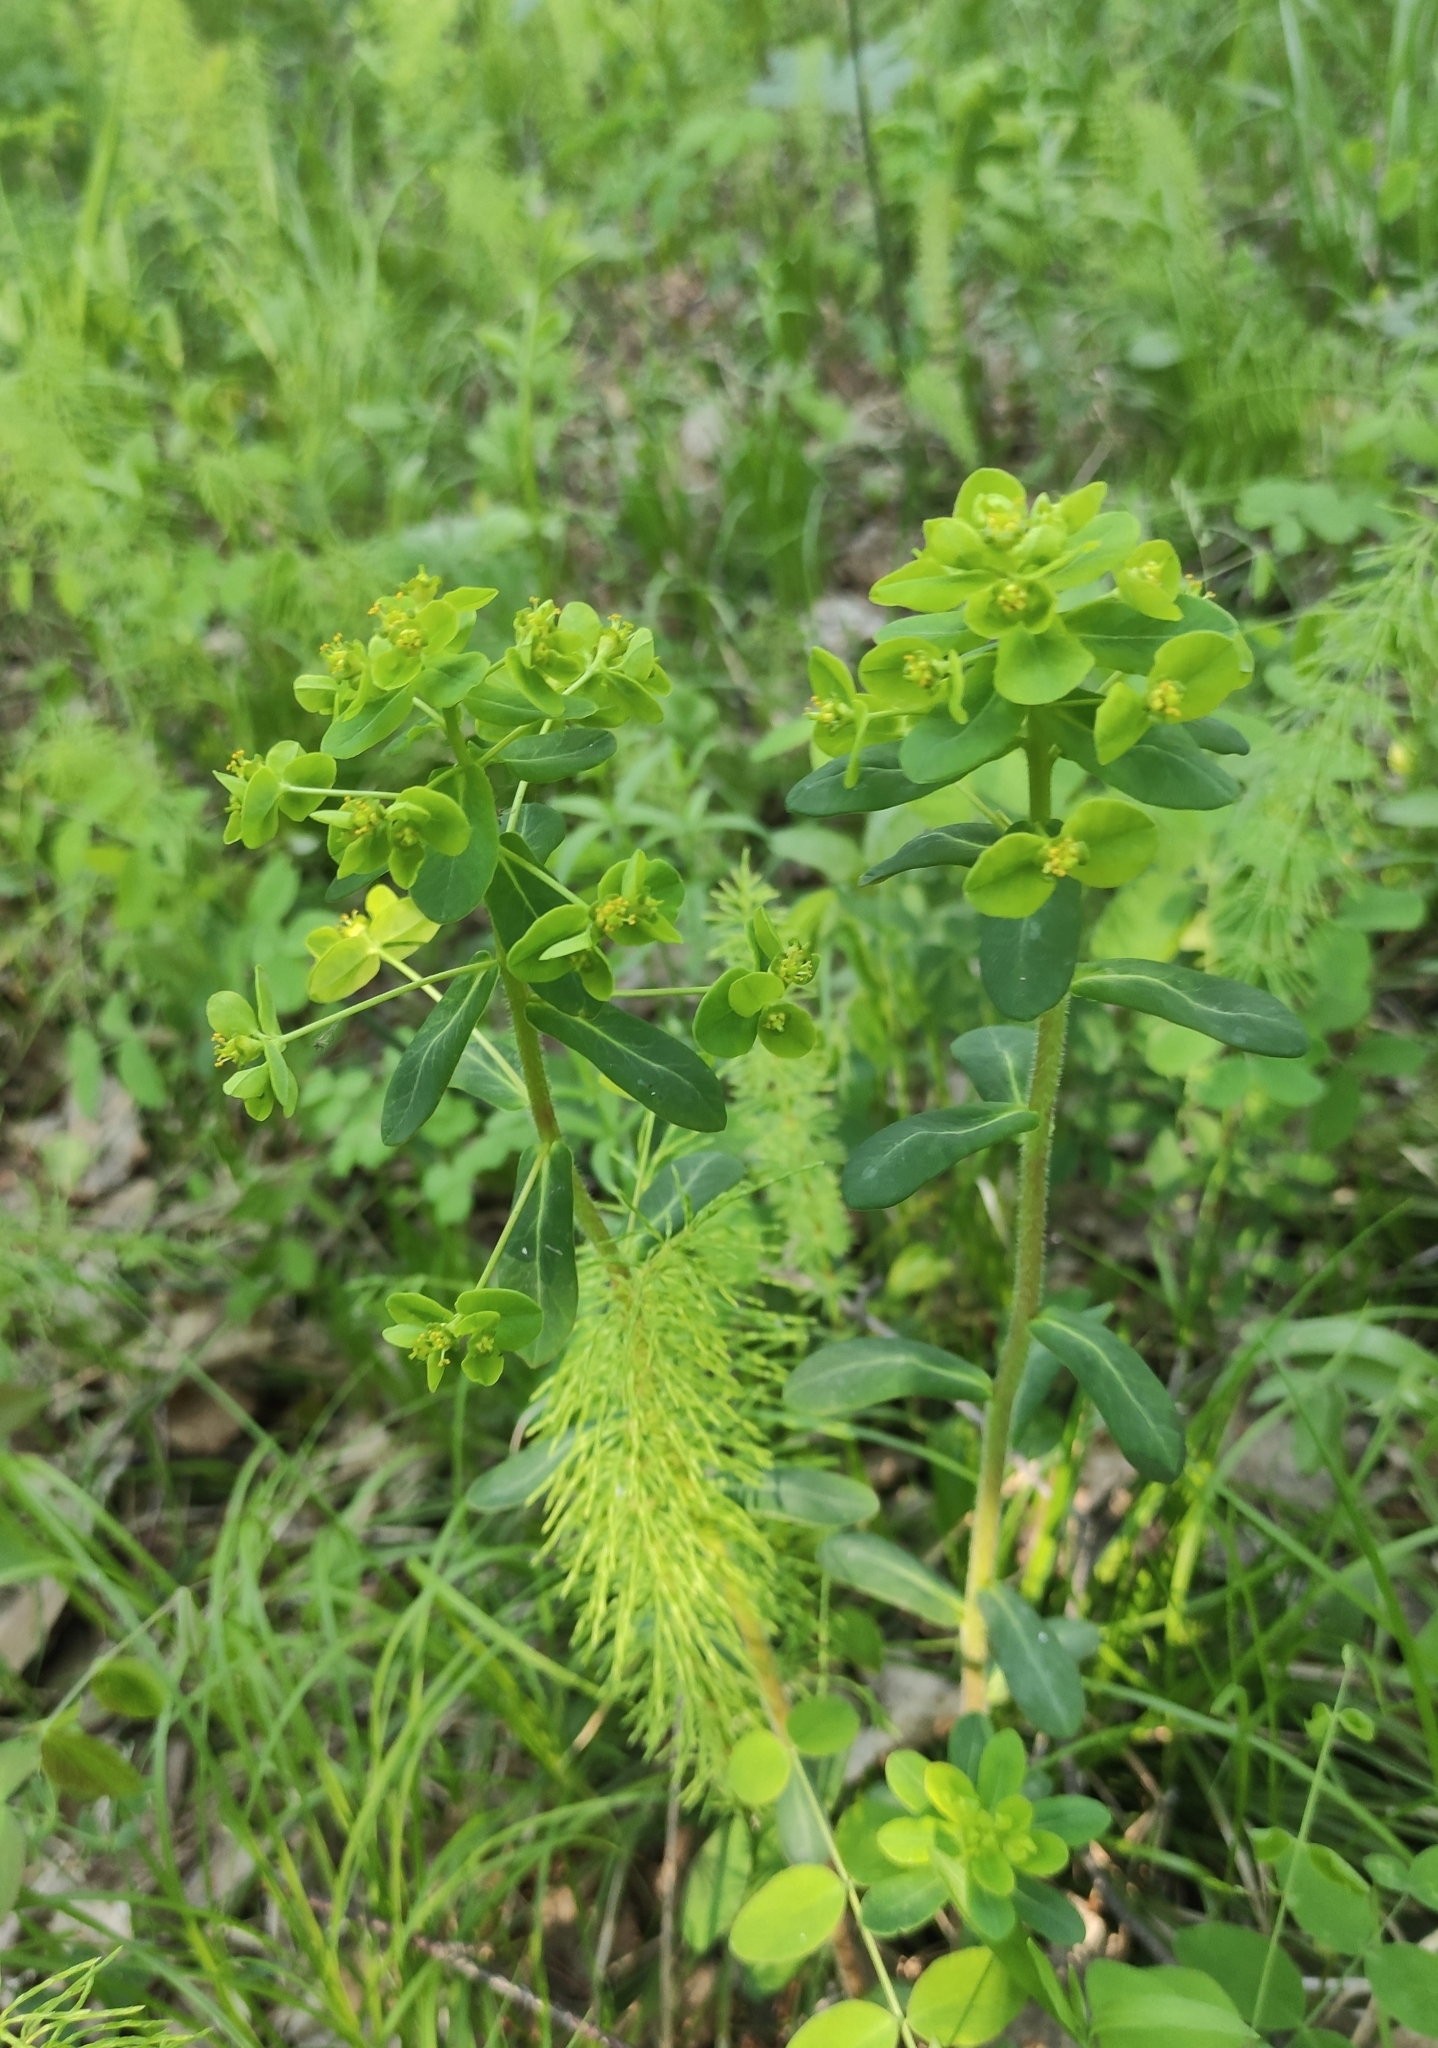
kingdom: Plantae
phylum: Tracheophyta
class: Magnoliopsida
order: Malpighiales
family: Euphorbiaceae
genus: Euphorbia
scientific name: Euphorbia jenisseiensis
